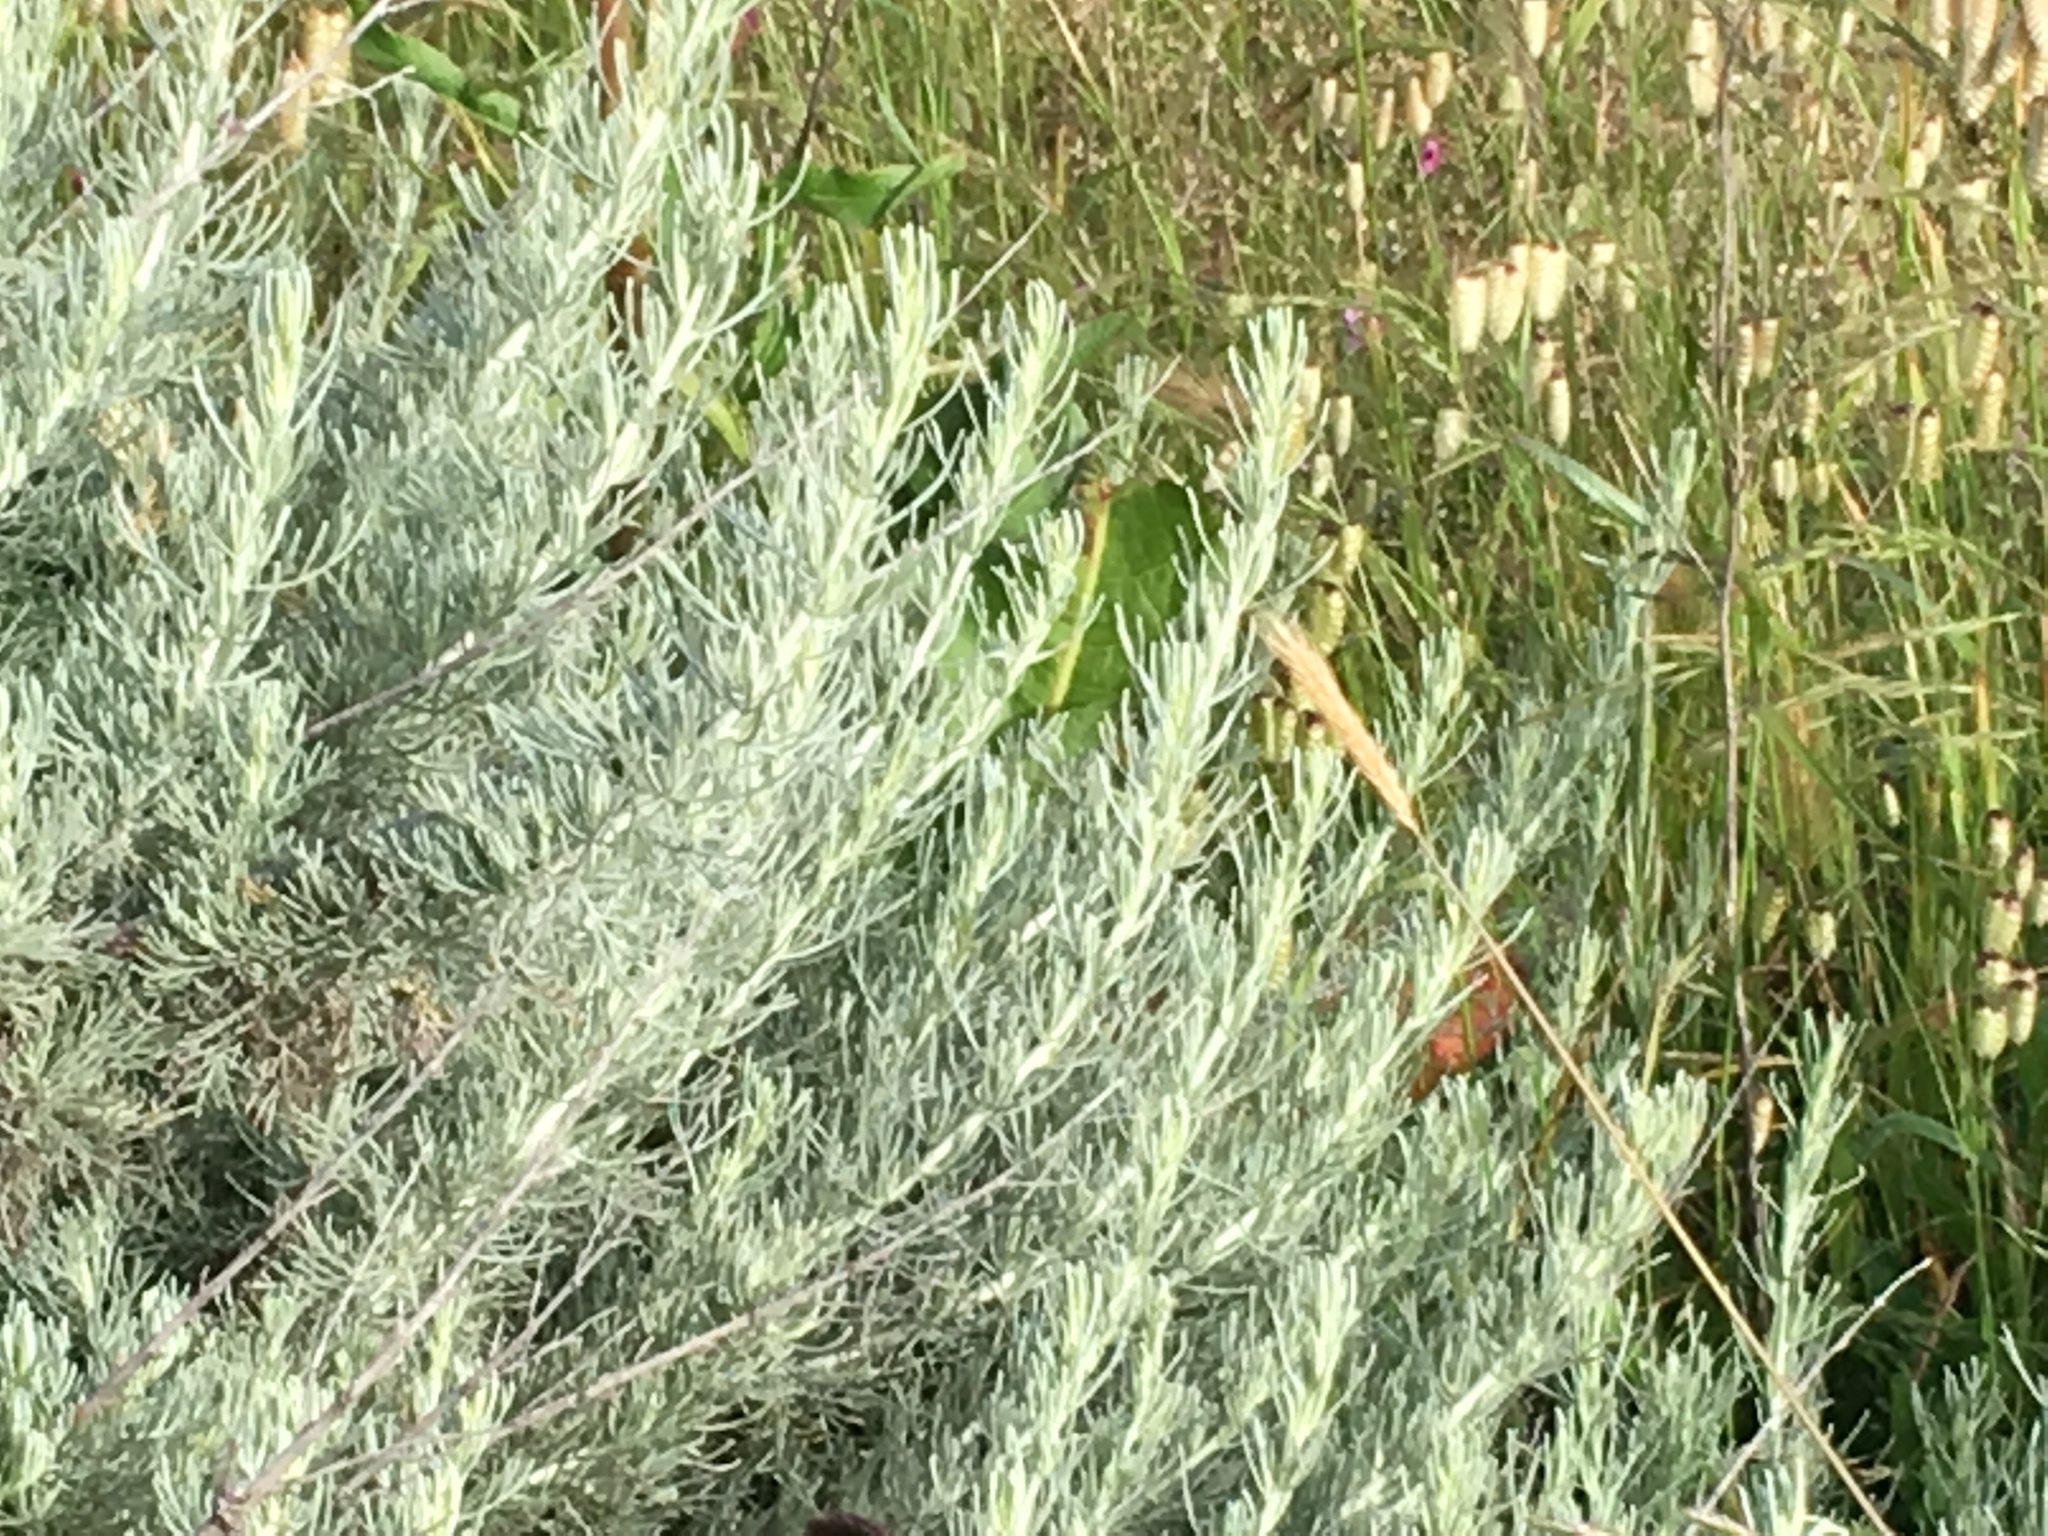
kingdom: Plantae
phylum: Tracheophyta
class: Magnoliopsida
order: Asterales
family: Asteraceae
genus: Artemisia
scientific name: Artemisia californica
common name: California sagebrush
